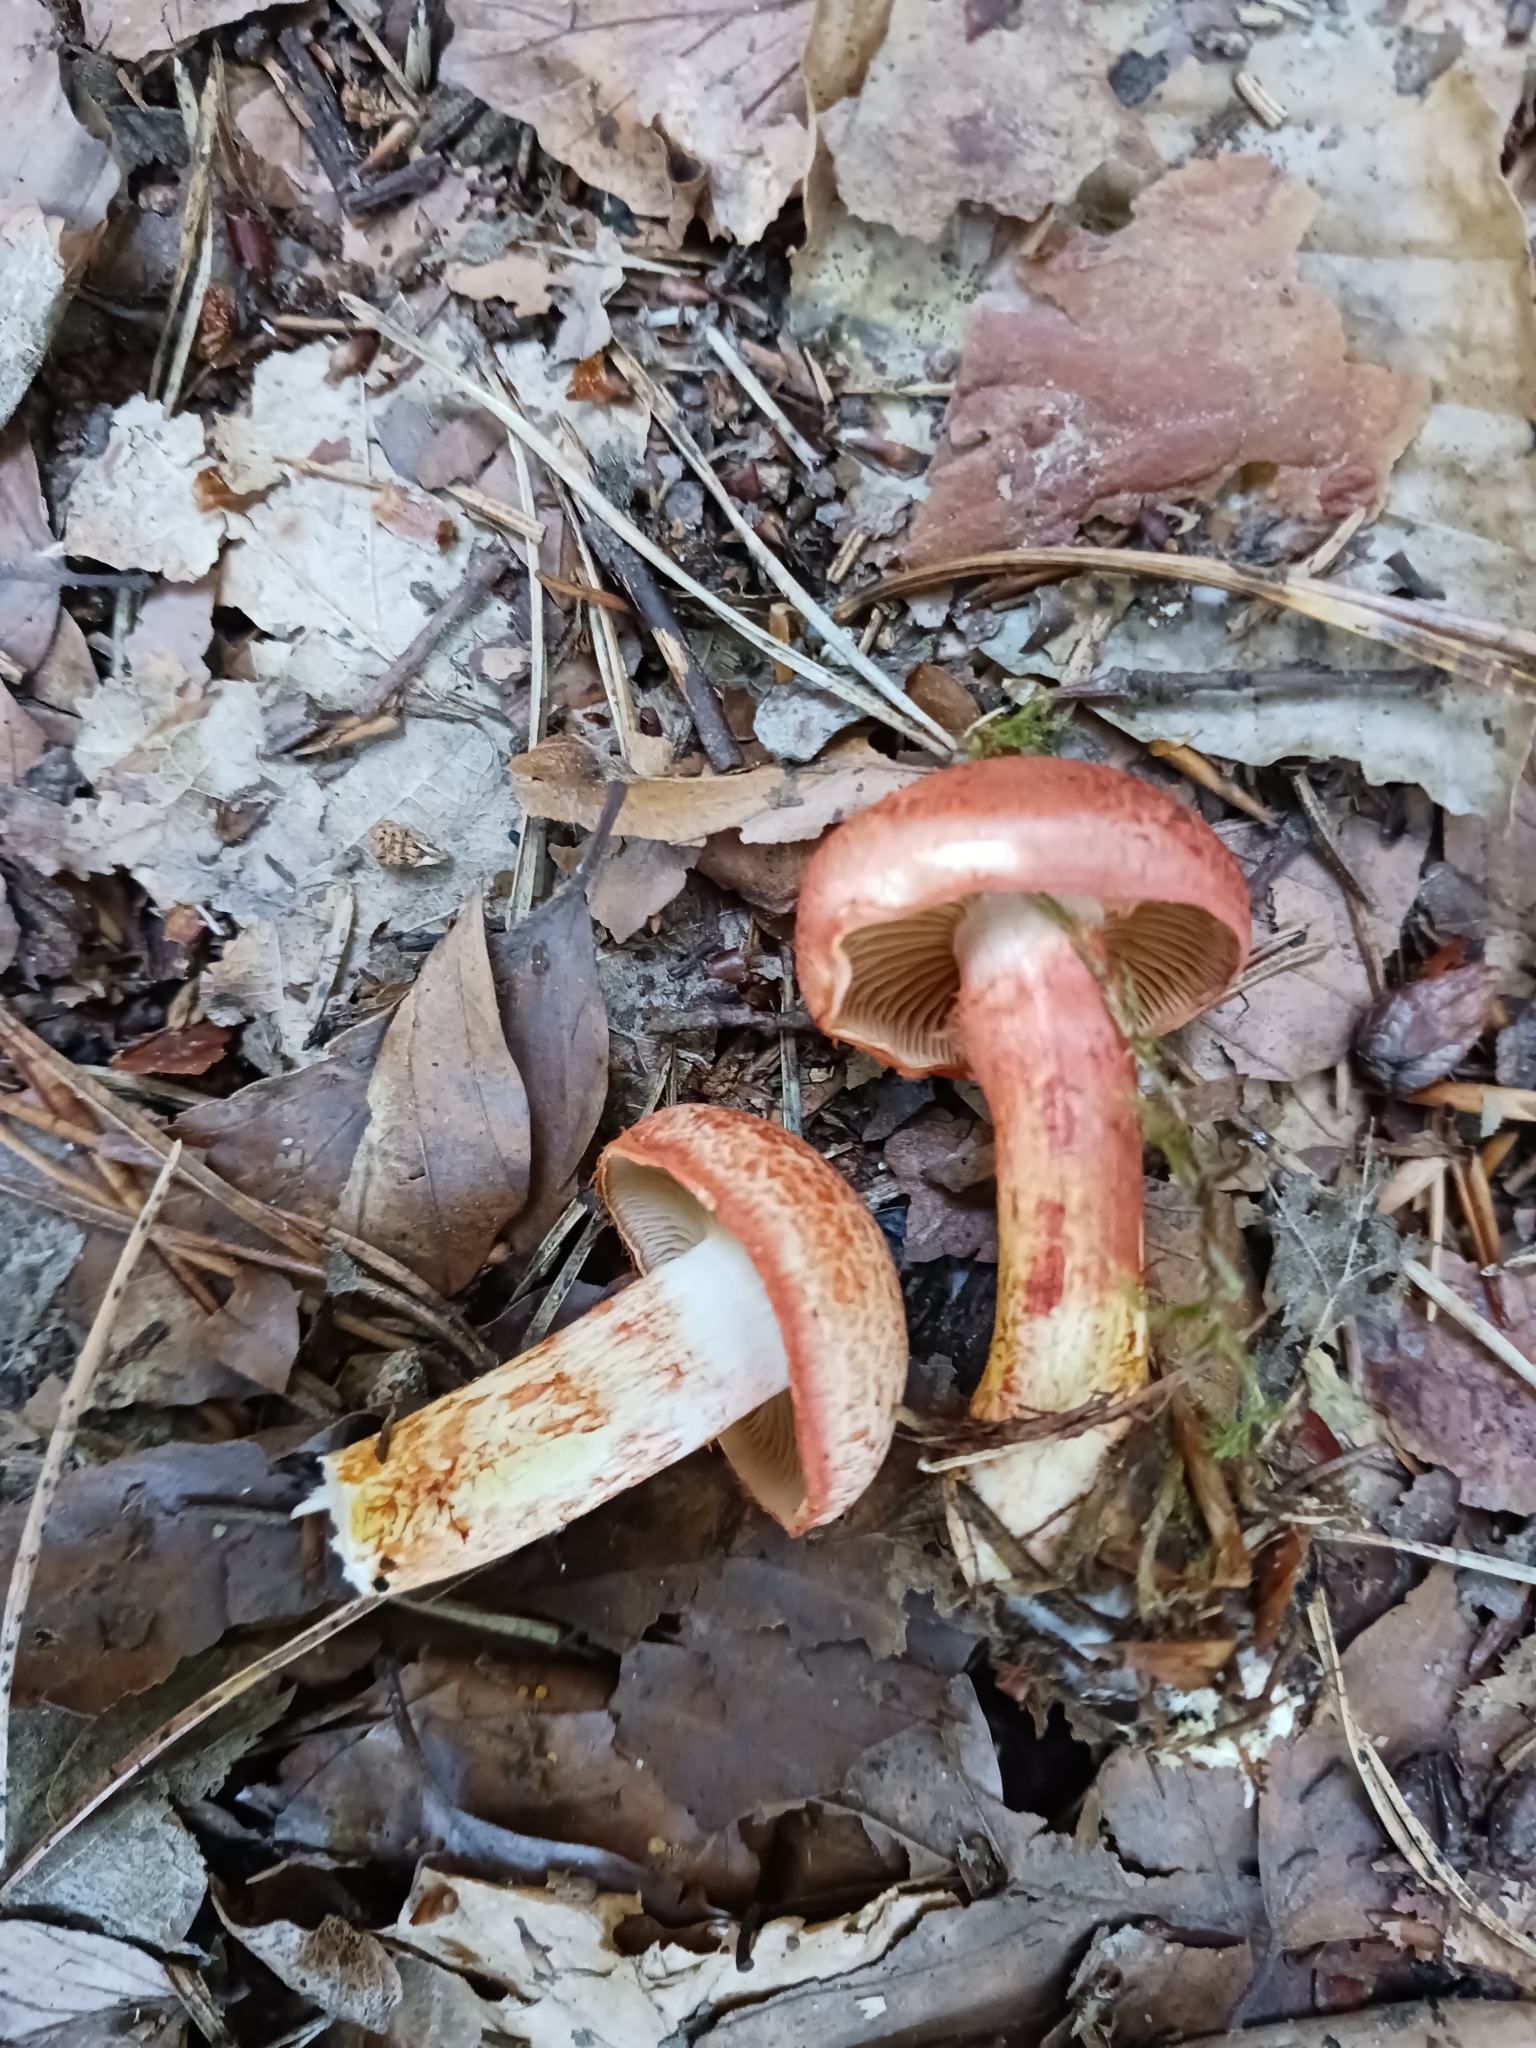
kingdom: Fungi
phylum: Basidiomycota
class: Agaricomycetes
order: Agaricales
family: Cortinariaceae
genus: Cortinarius
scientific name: Cortinarius bolaris
